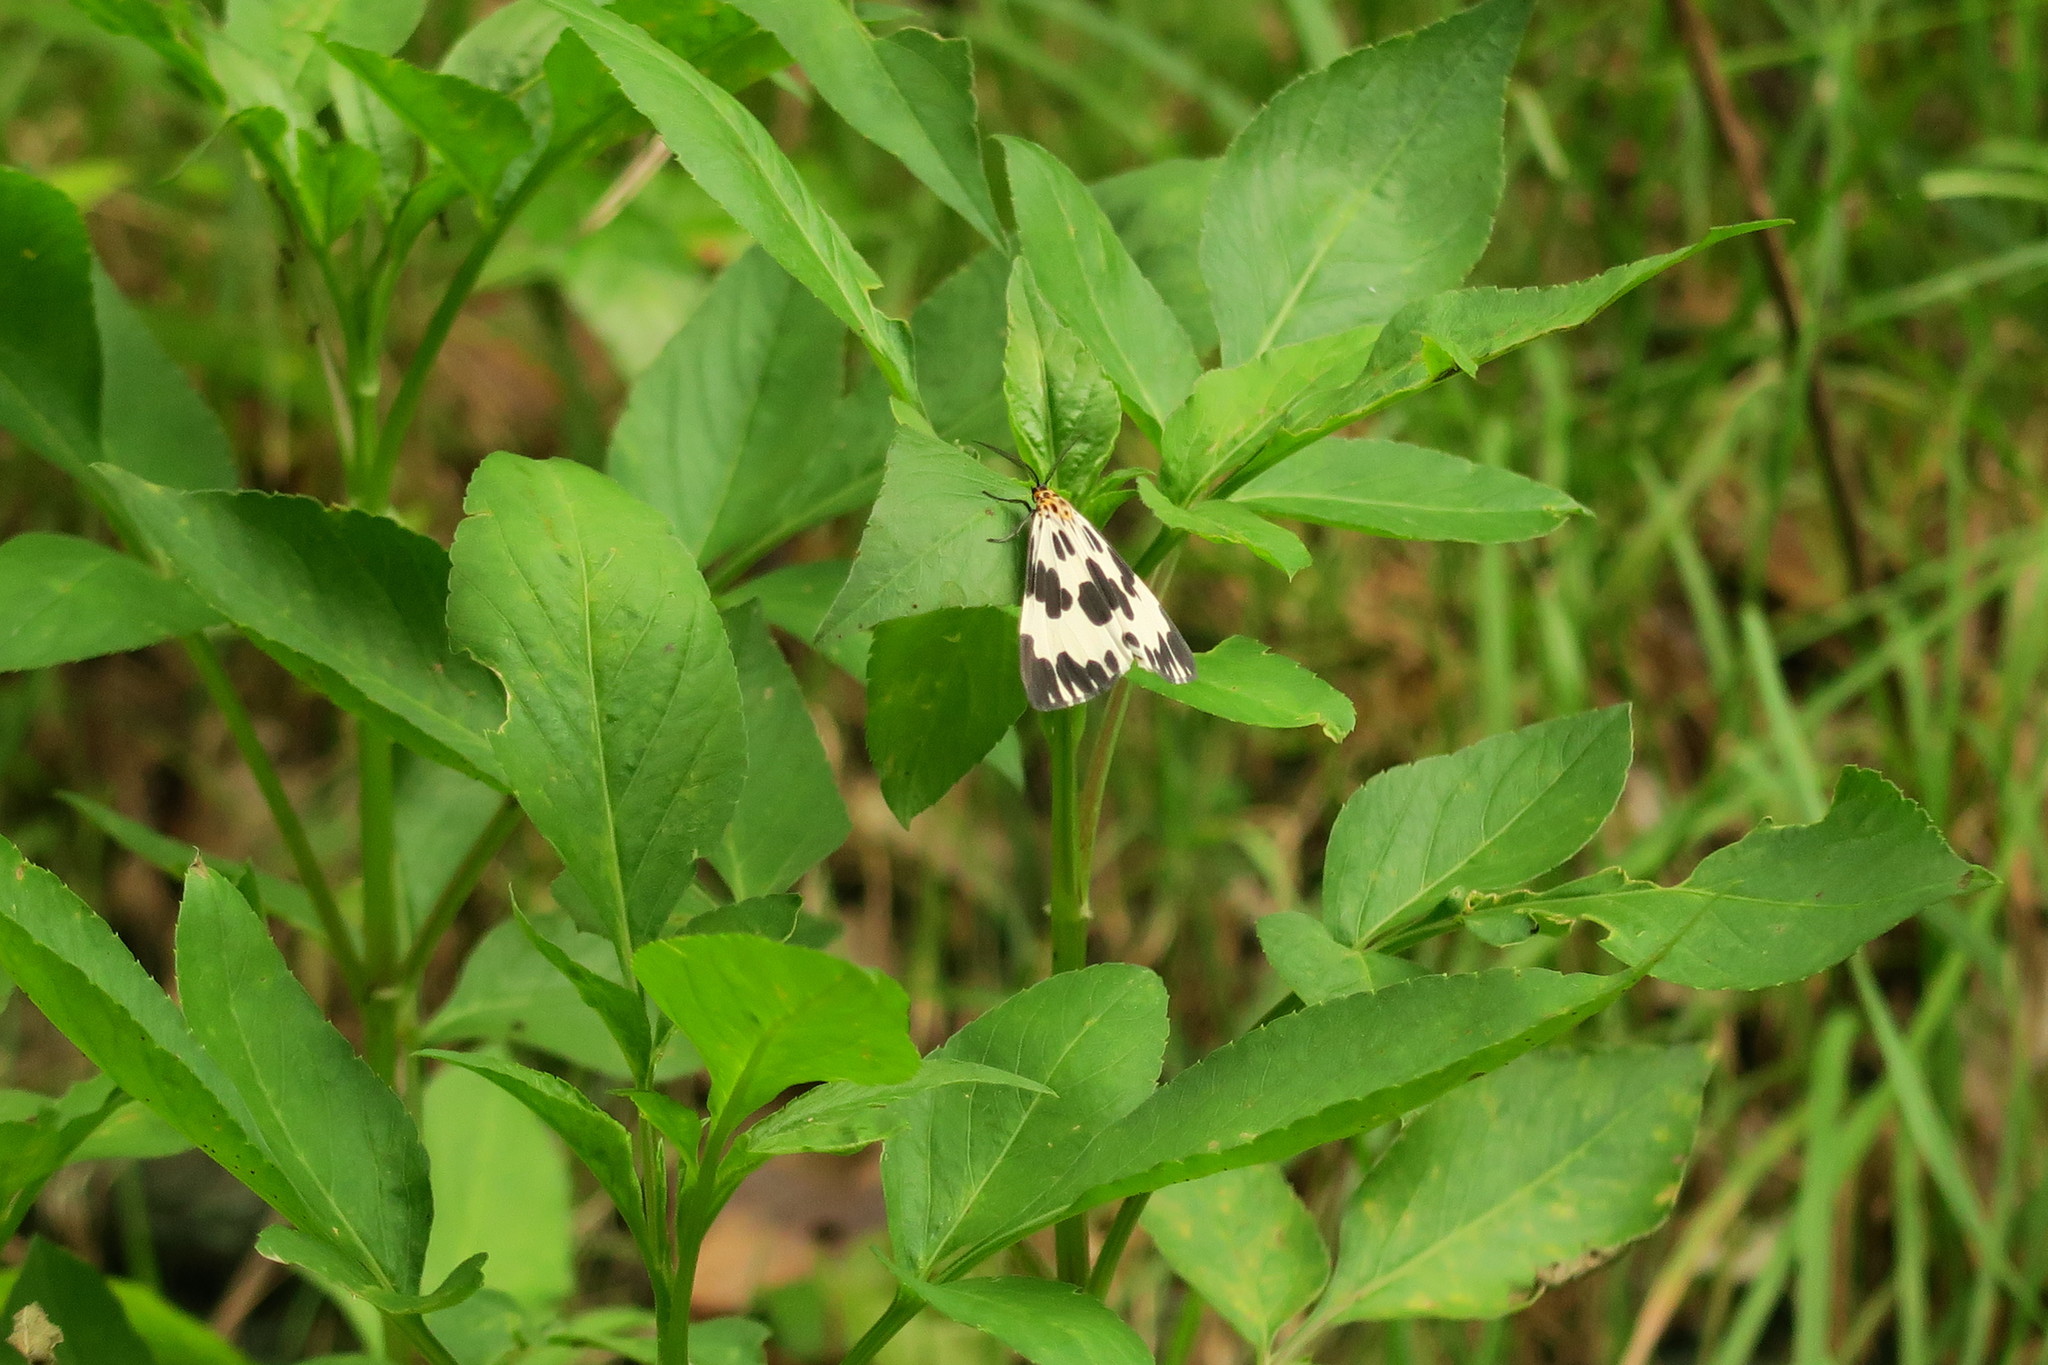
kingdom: Animalia
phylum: Arthropoda
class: Insecta
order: Lepidoptera
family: Erebidae
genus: Nyctemera
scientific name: Nyctemera cenis
